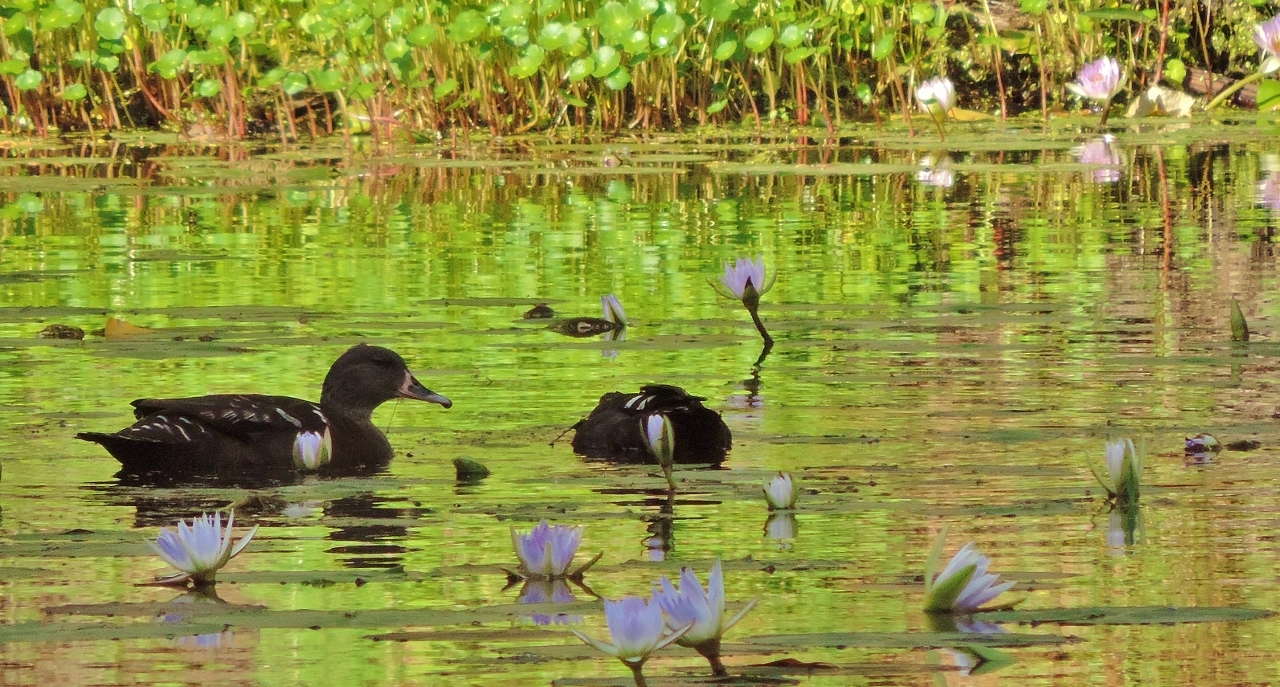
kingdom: Animalia
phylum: Chordata
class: Aves
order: Anseriformes
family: Anatidae
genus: Anas
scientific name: Anas sparsa
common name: African black duck
